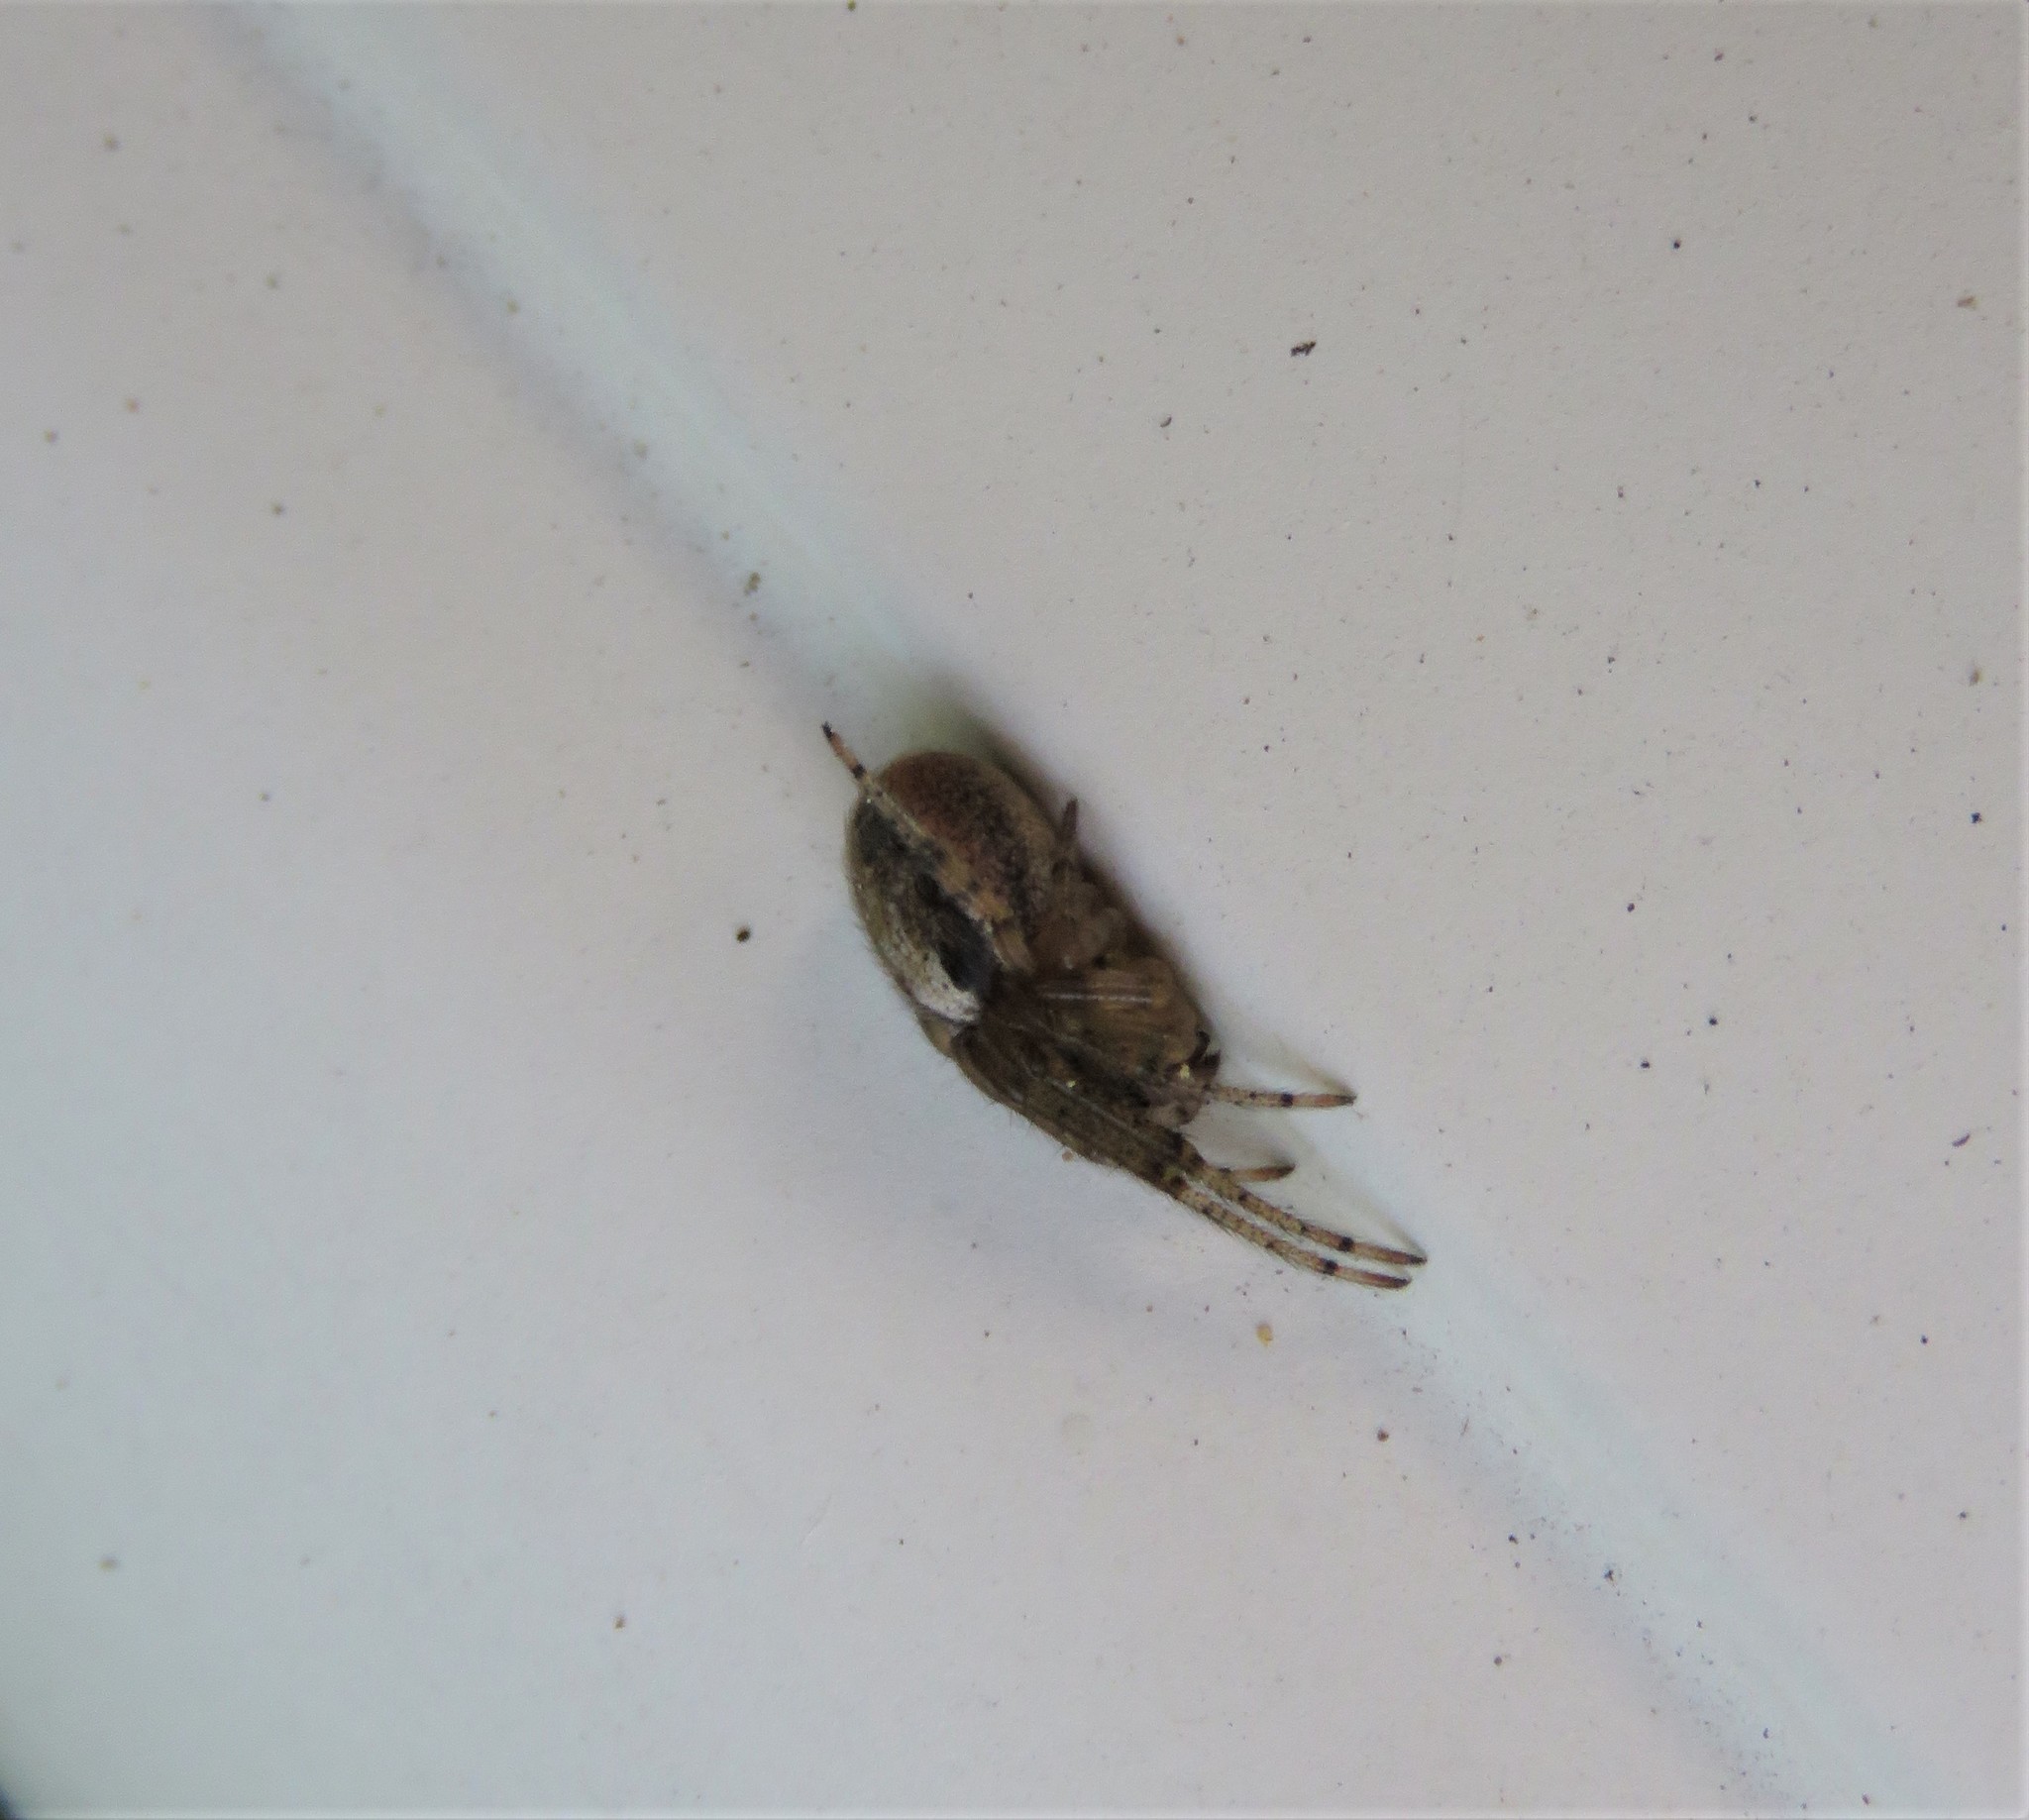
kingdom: Animalia
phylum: Arthropoda
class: Arachnida
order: Araneae
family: Araneidae
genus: Zygiella
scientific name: Zygiella x-notata
